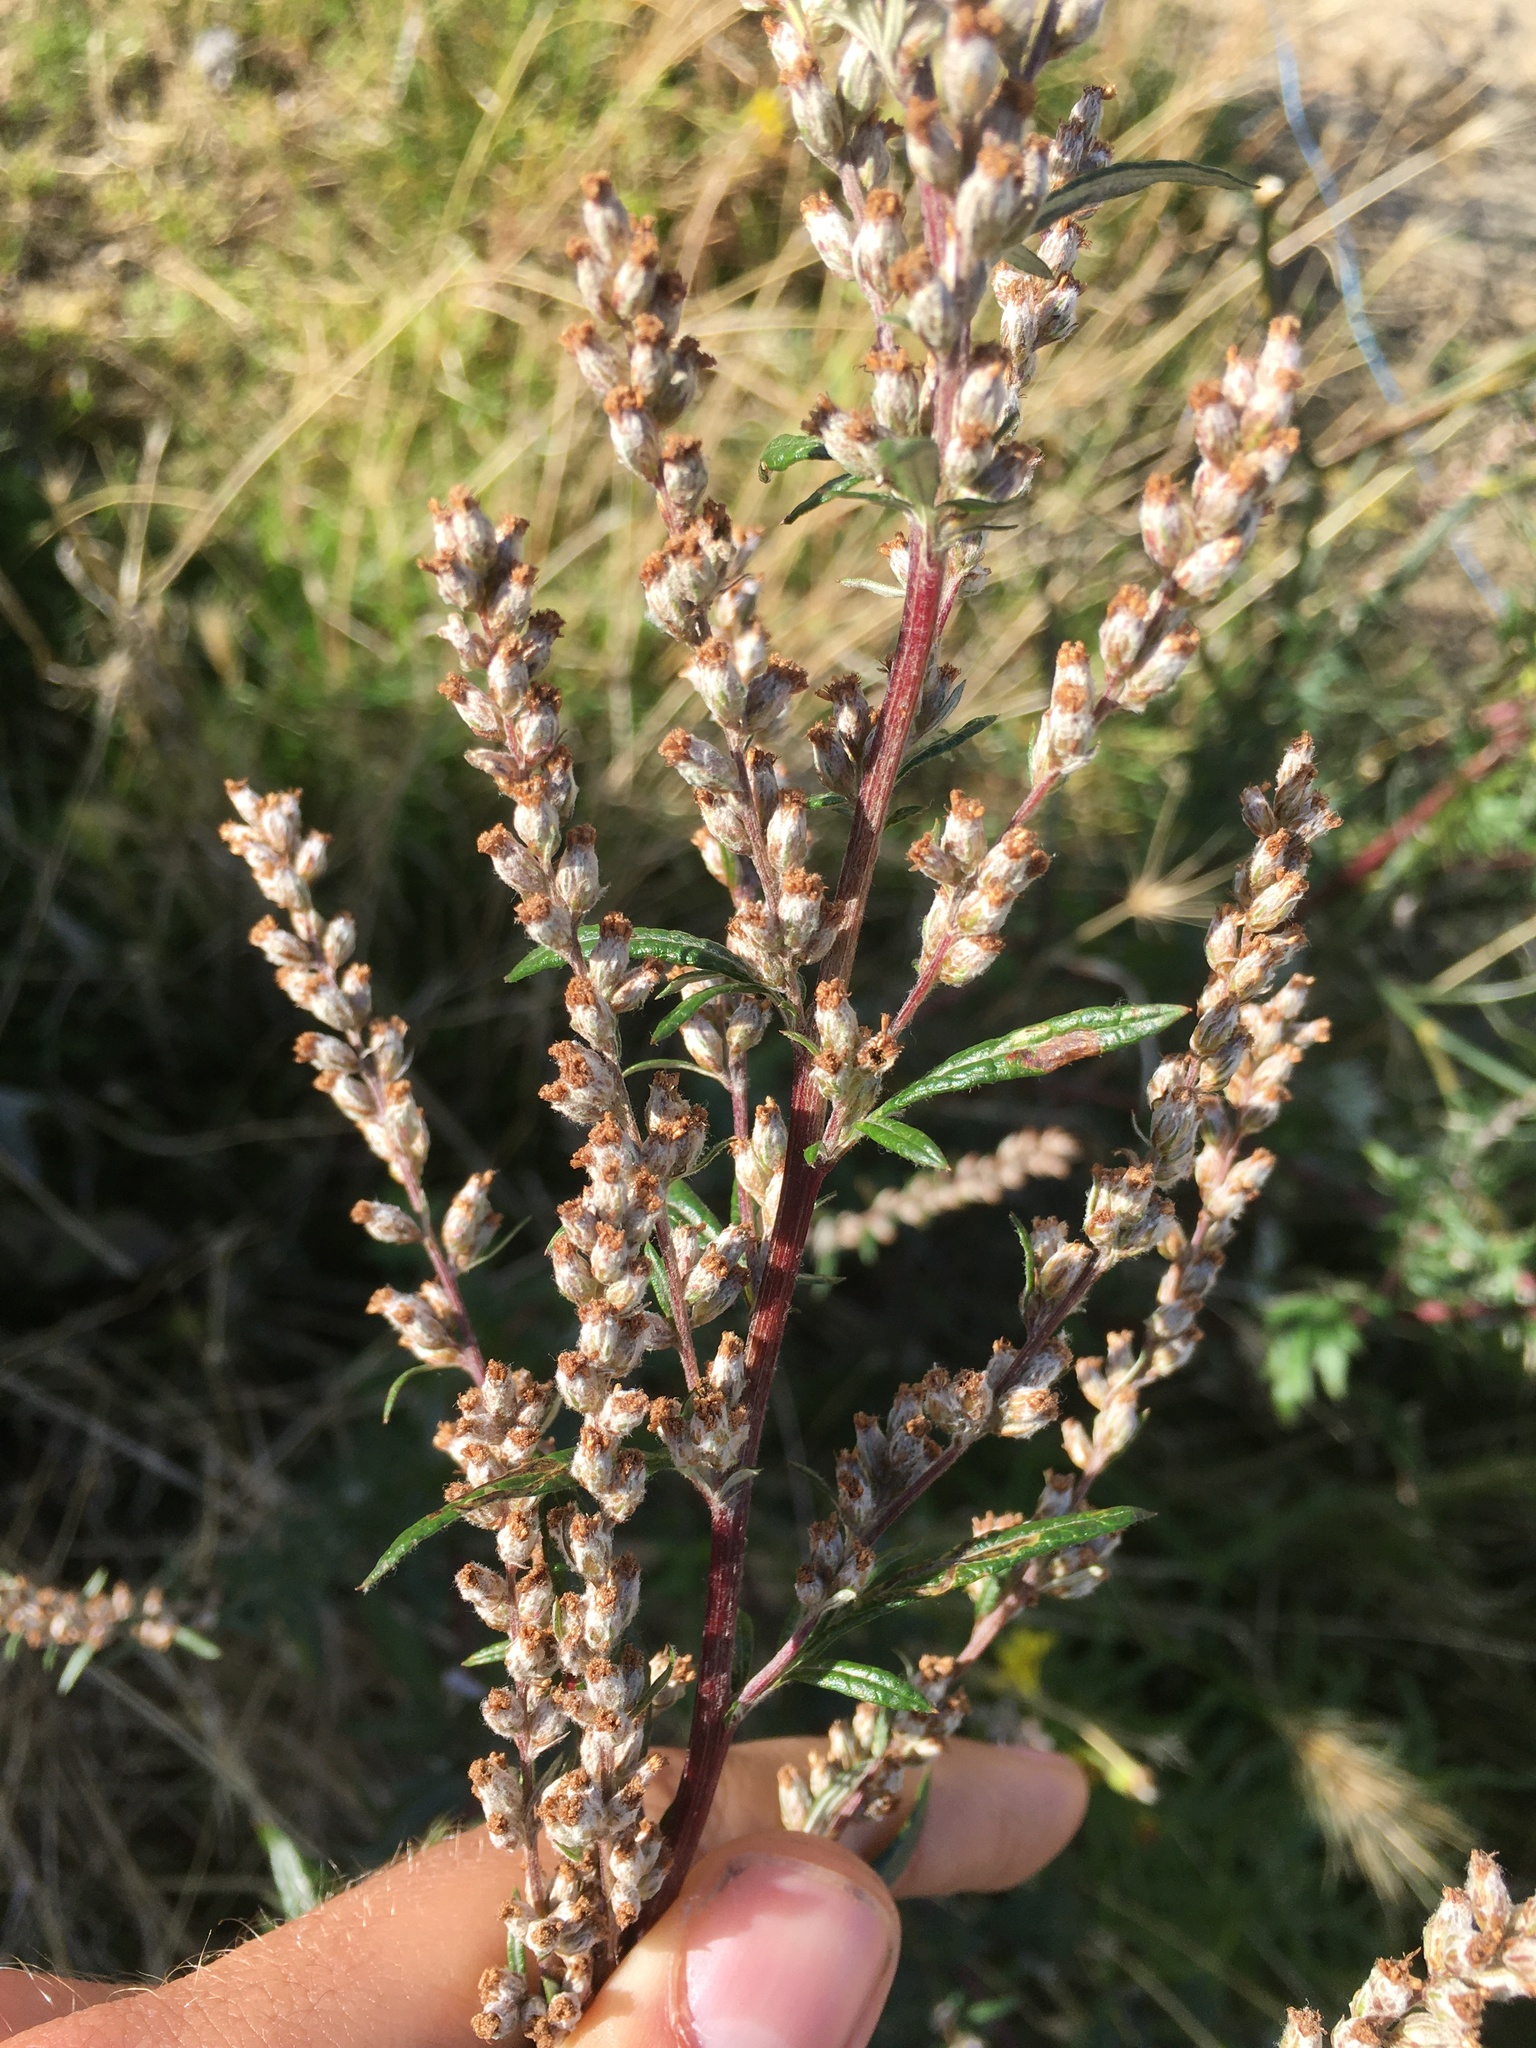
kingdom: Plantae
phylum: Tracheophyta
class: Magnoliopsida
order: Asterales
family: Asteraceae
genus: Artemisia
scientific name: Artemisia vulgaris
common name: Mugwort
